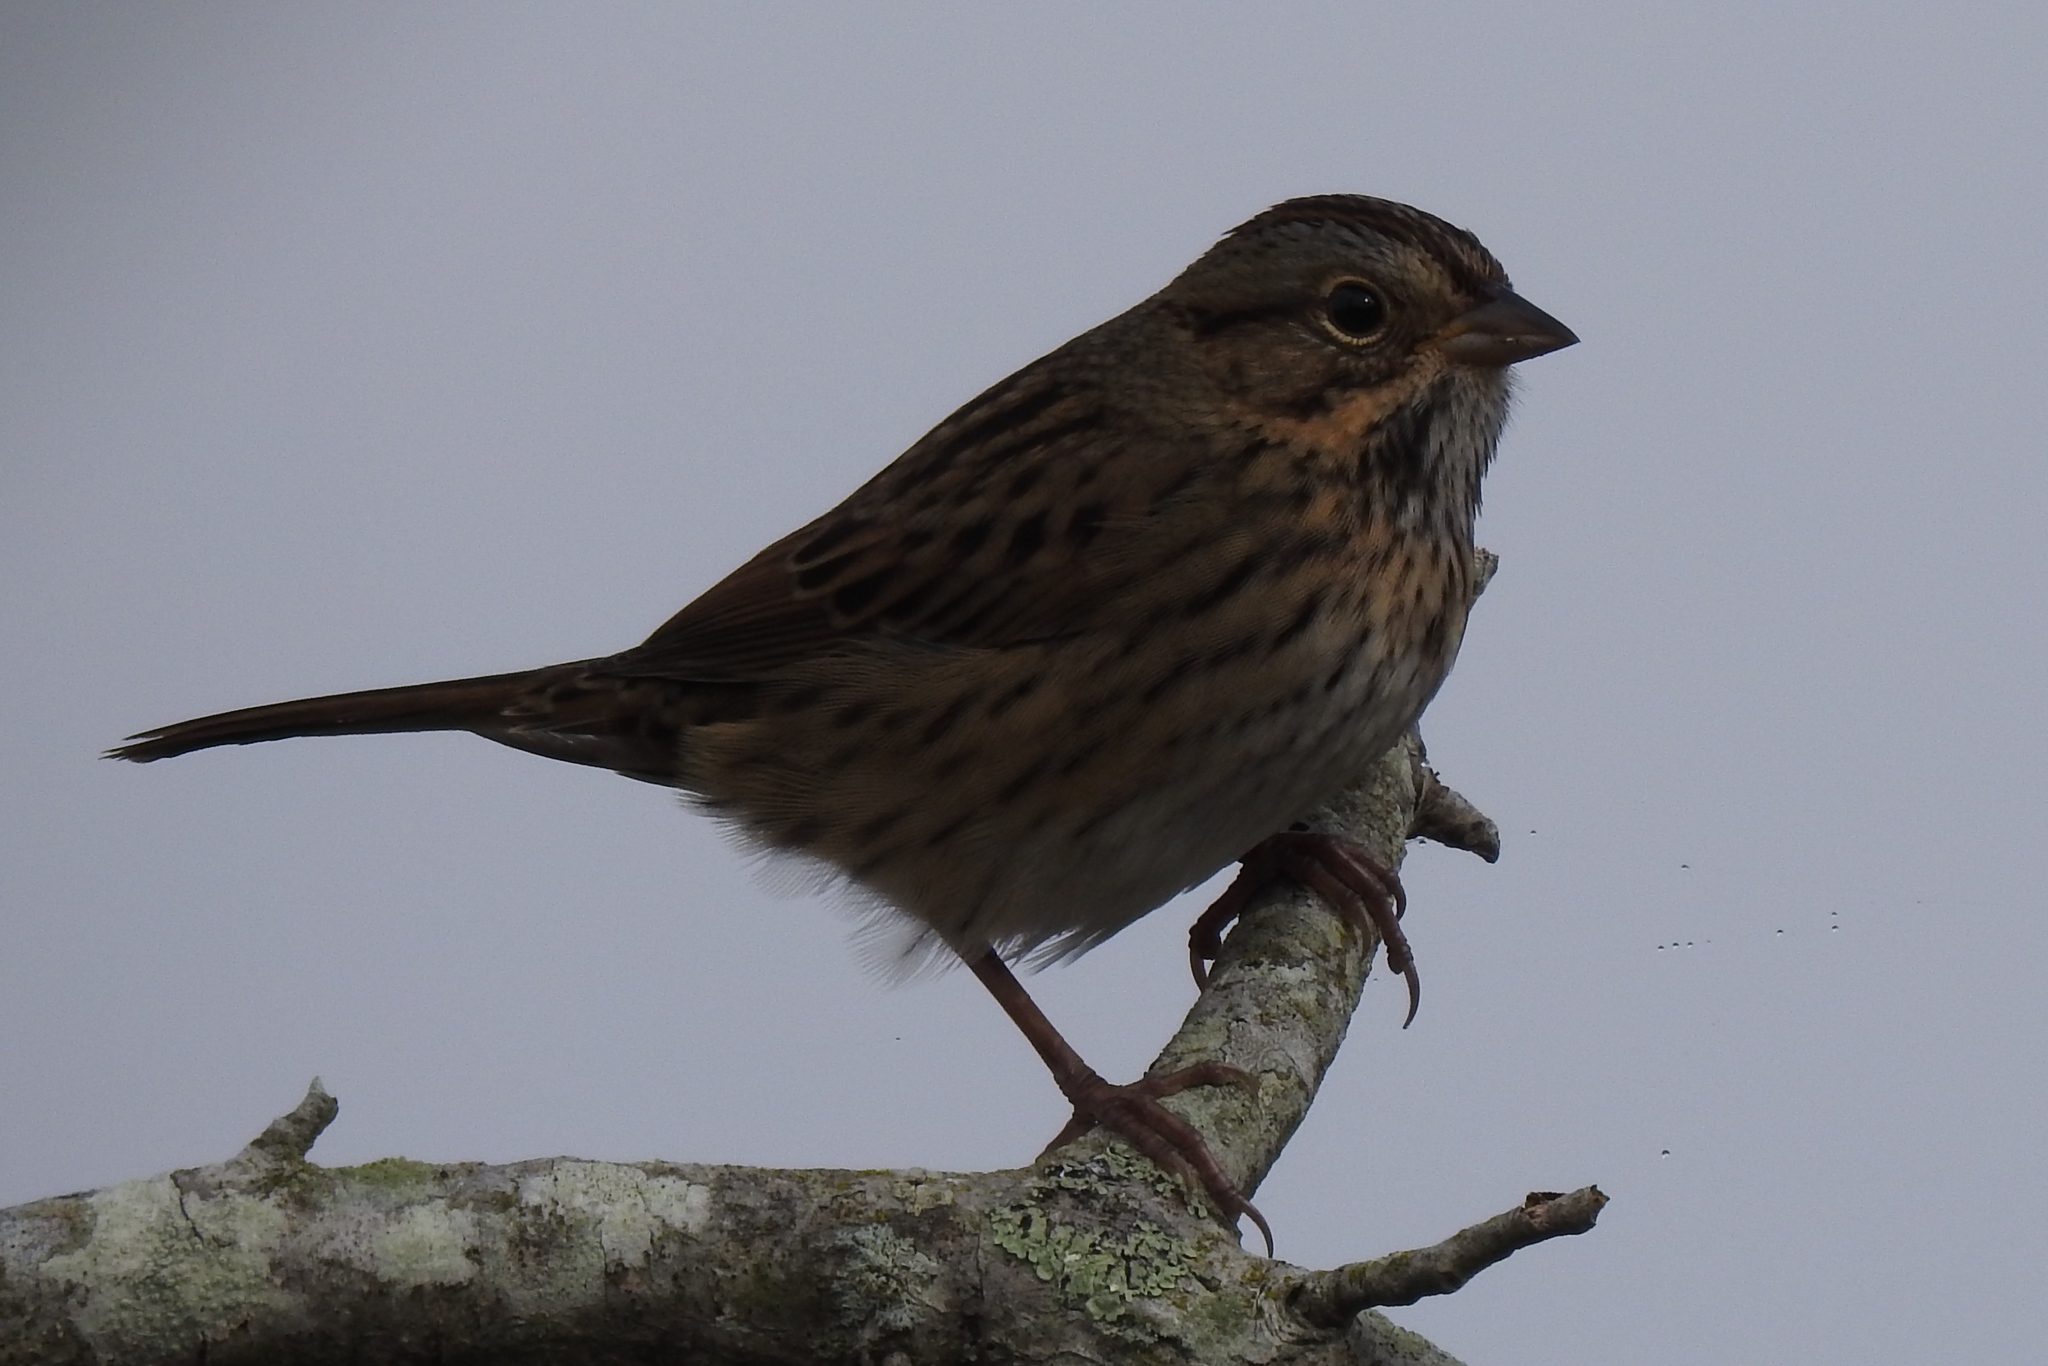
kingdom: Animalia
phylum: Chordata
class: Aves
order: Passeriformes
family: Passerellidae
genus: Melospiza
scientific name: Melospiza lincolnii
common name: Lincoln's sparrow
